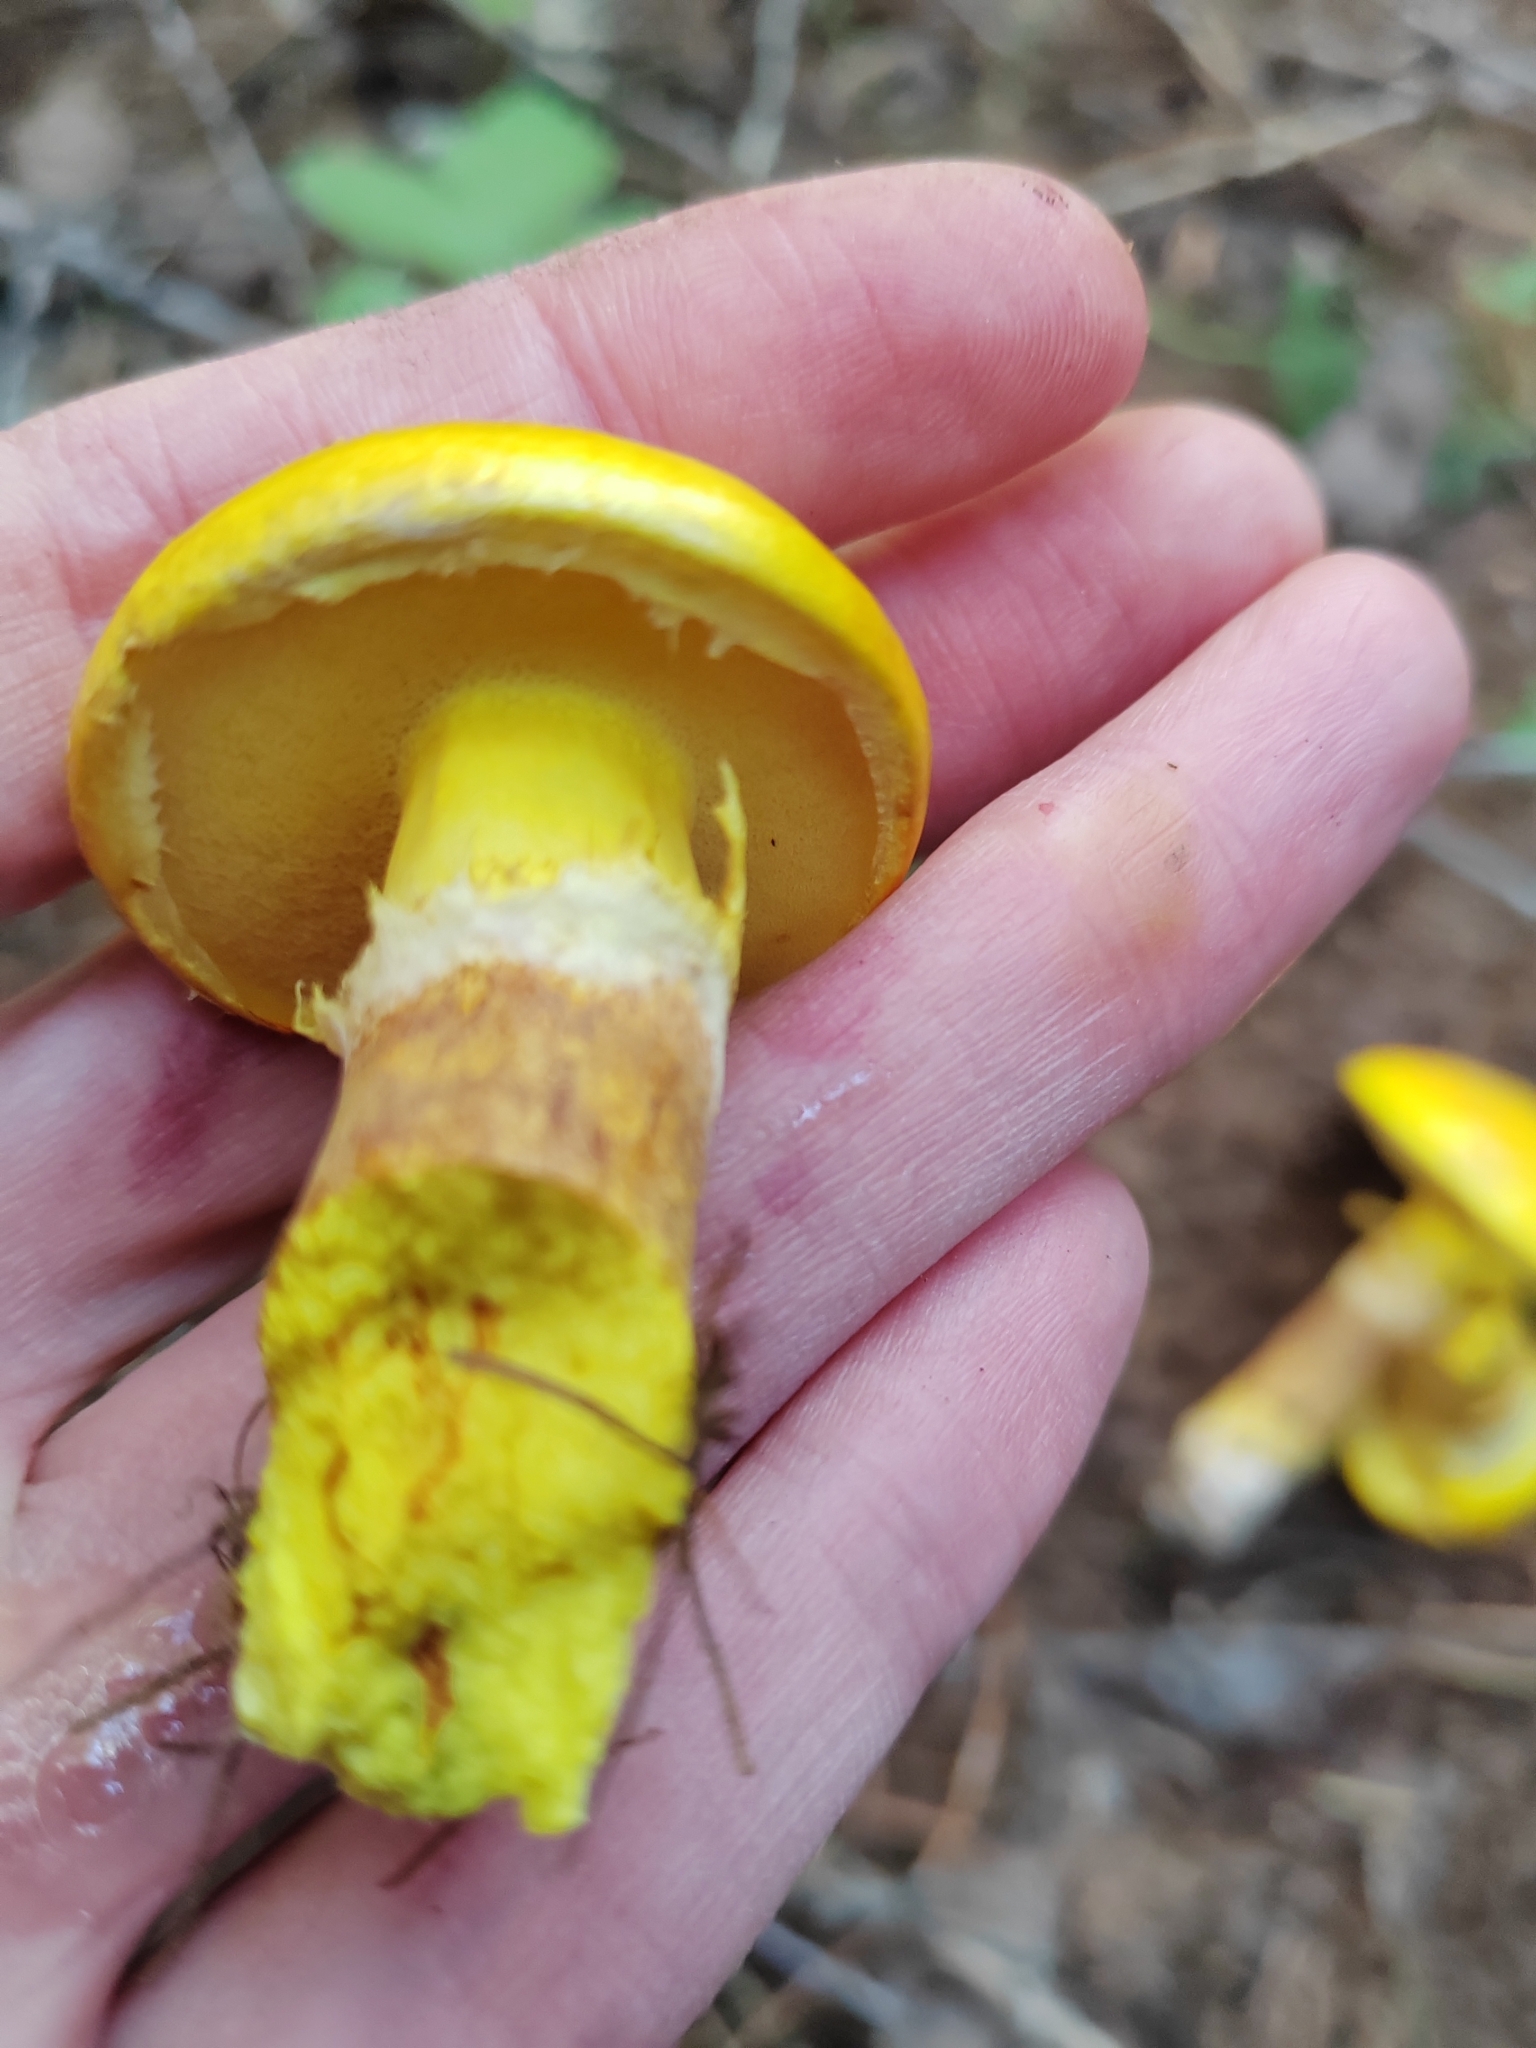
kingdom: Fungi
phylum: Basidiomycota
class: Agaricomycetes
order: Boletales
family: Suillaceae
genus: Suillus
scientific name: Suillus grevillei
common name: Larch bolete
